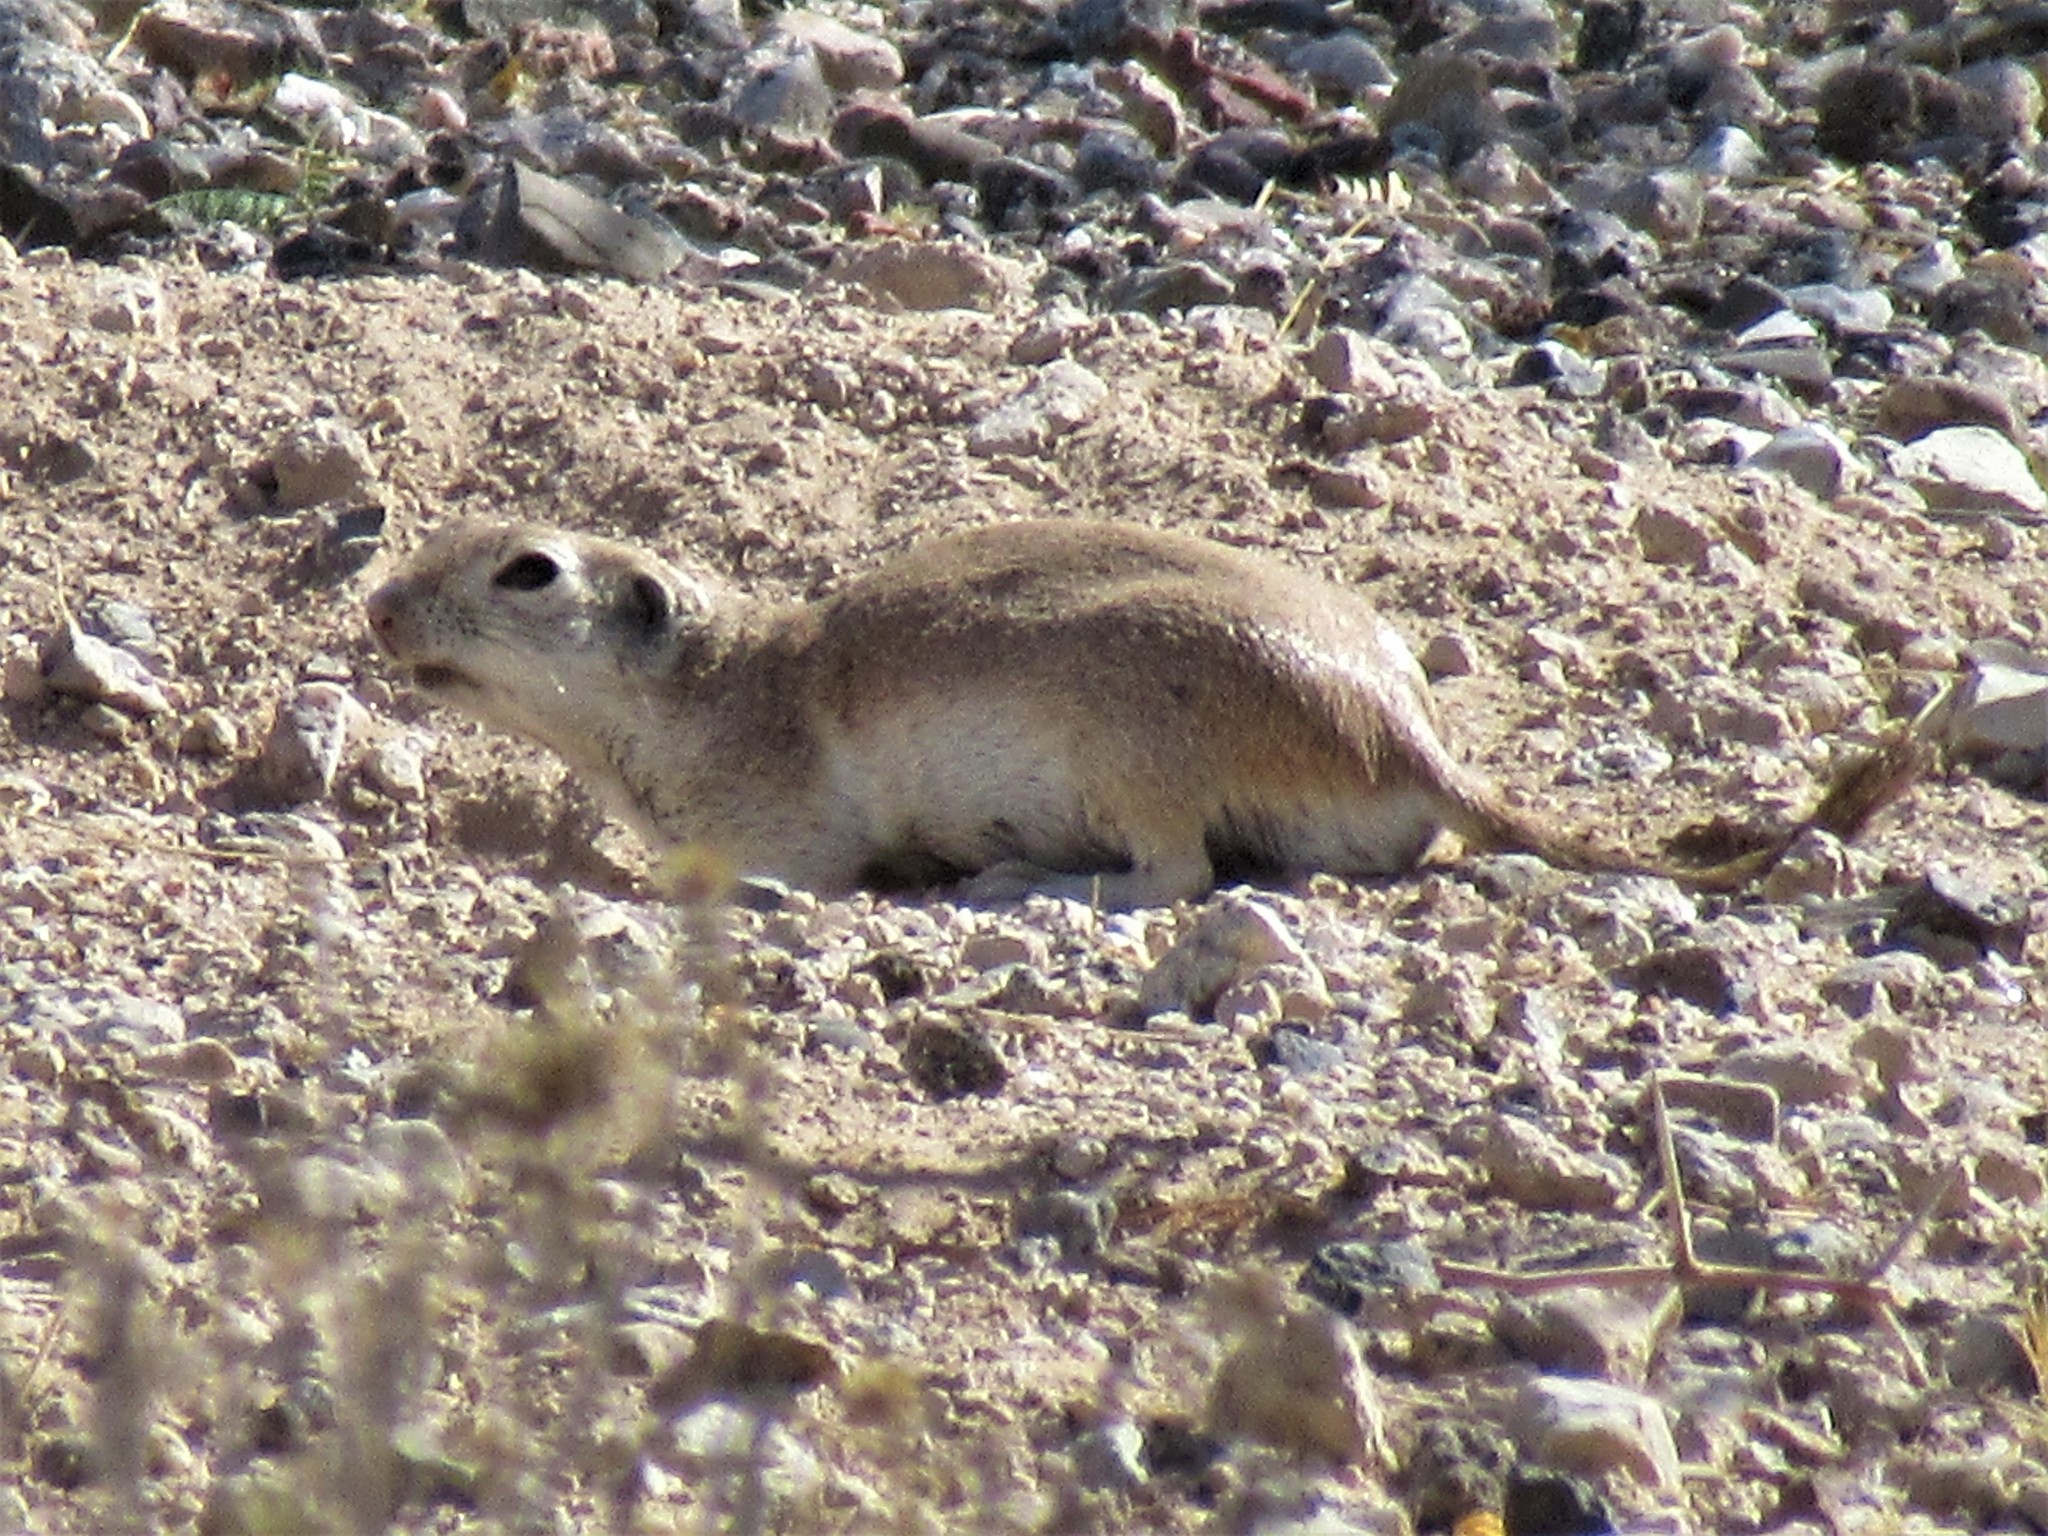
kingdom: Animalia
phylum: Chordata
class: Mammalia
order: Rodentia
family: Sciuridae
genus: Xerospermophilus
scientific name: Xerospermophilus tereticaudus
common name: Round-tailed ground squirrel
